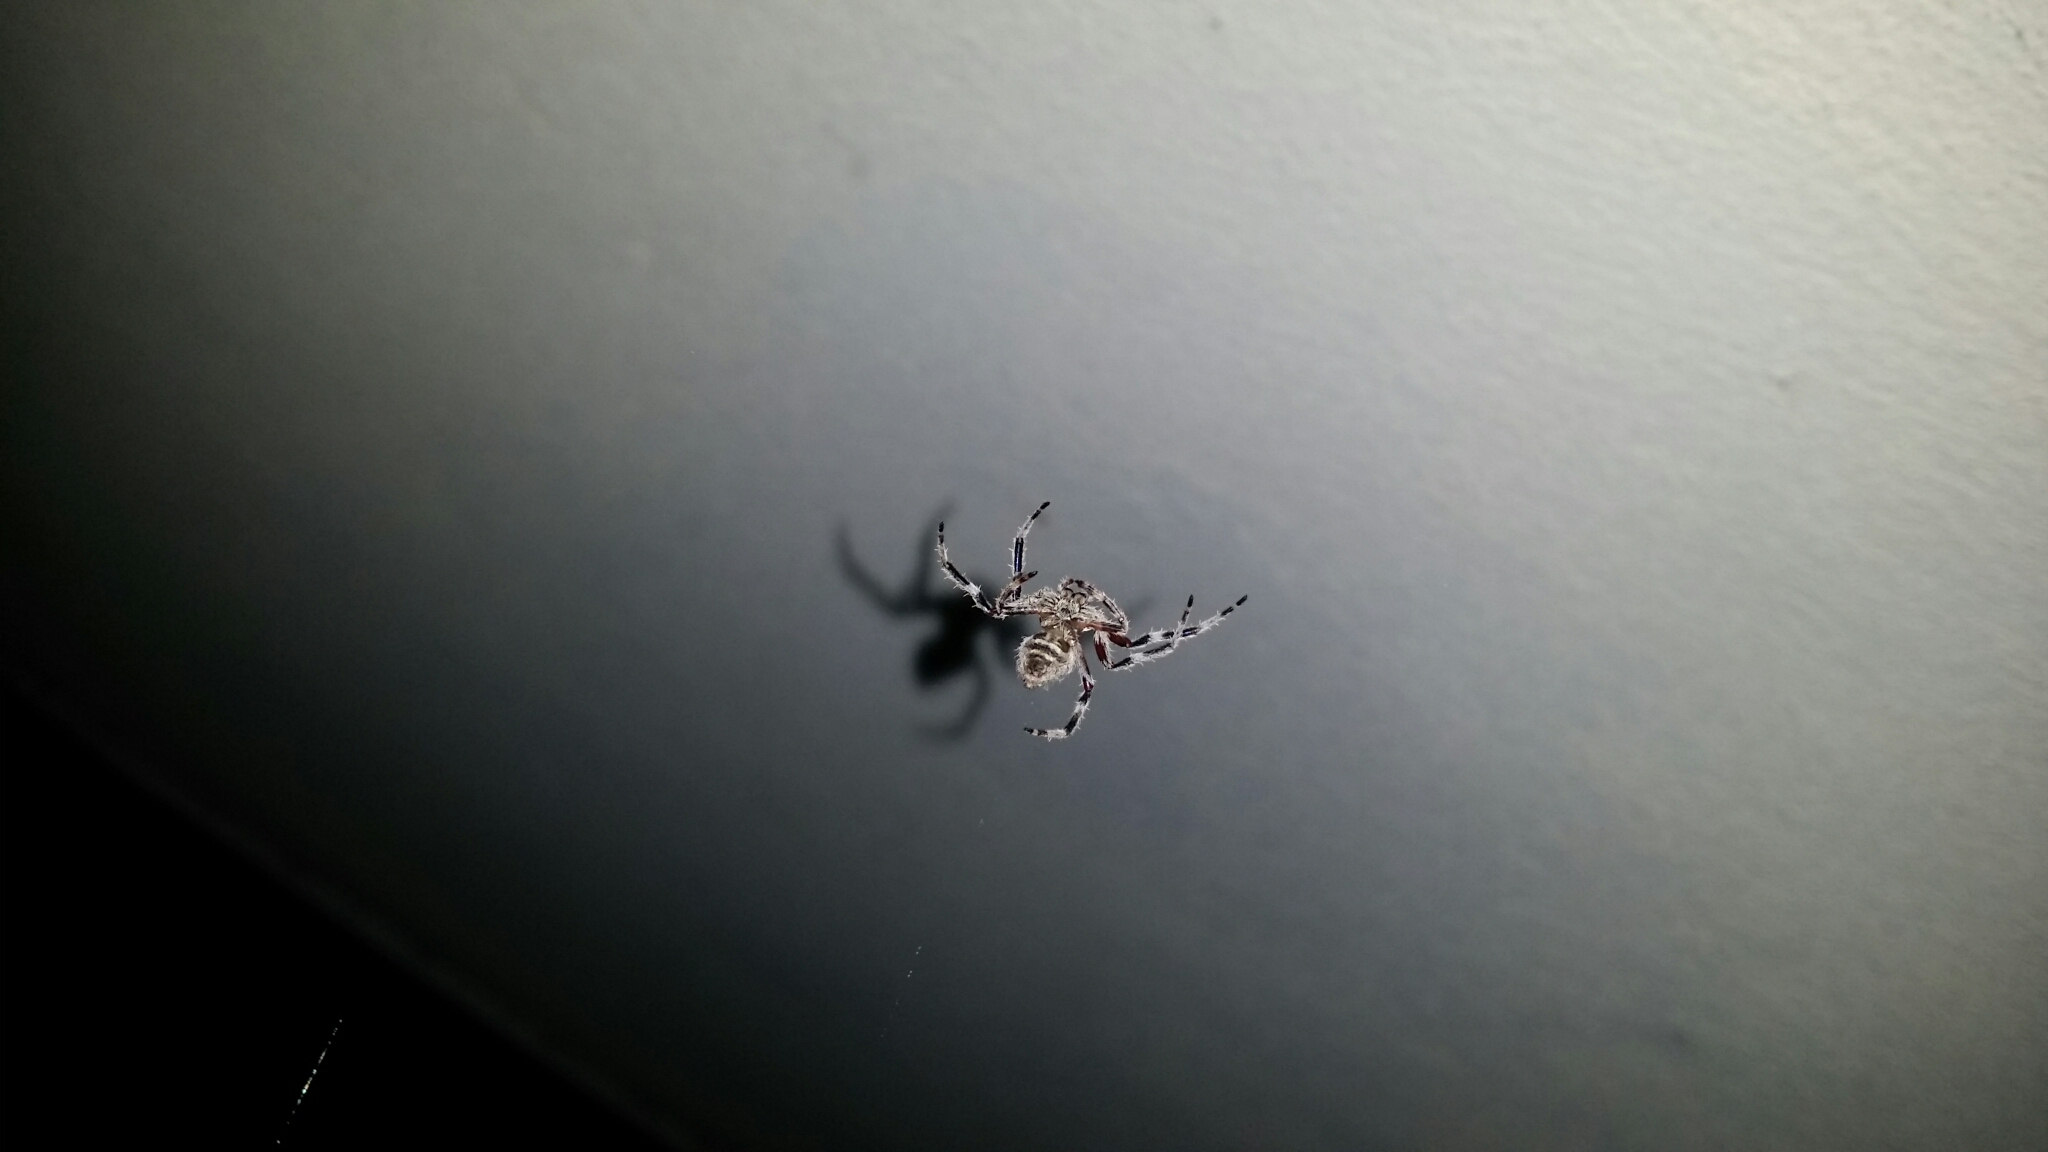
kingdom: Animalia
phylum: Arthropoda
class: Arachnida
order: Araneae
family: Araneidae
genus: Hortophora
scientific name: Hortophora biapicata
